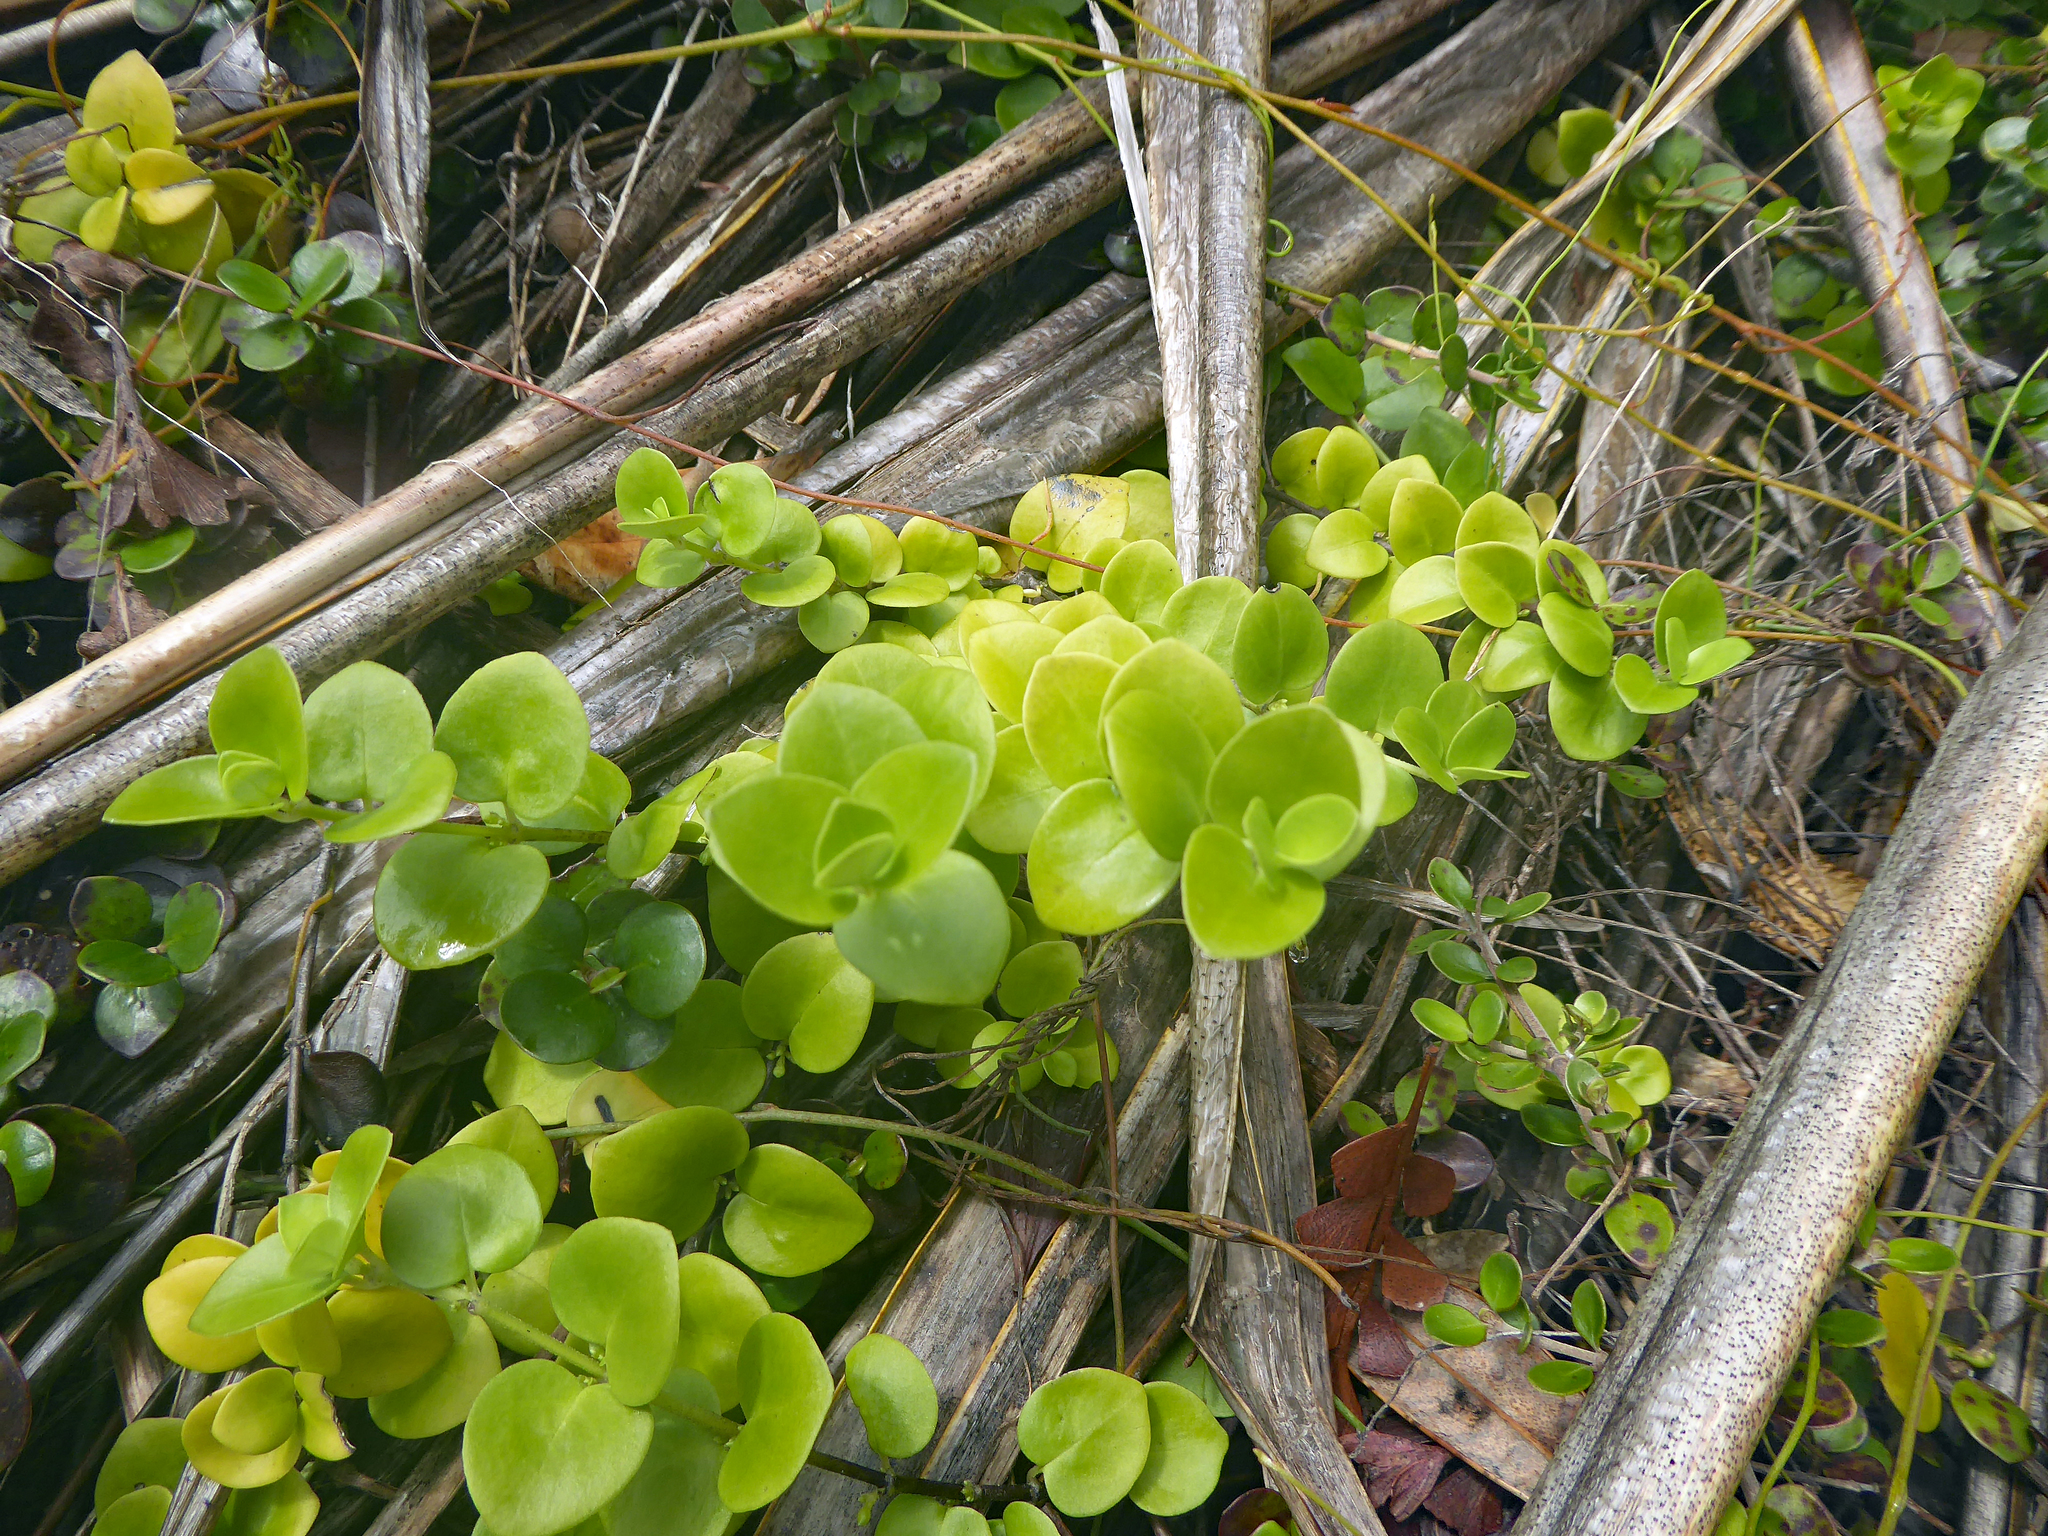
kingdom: Plantae
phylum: Tracheophyta
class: Magnoliopsida
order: Gentianales
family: Loganiaceae
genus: Geniostoma
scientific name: Geniostoma ligustrifolium
